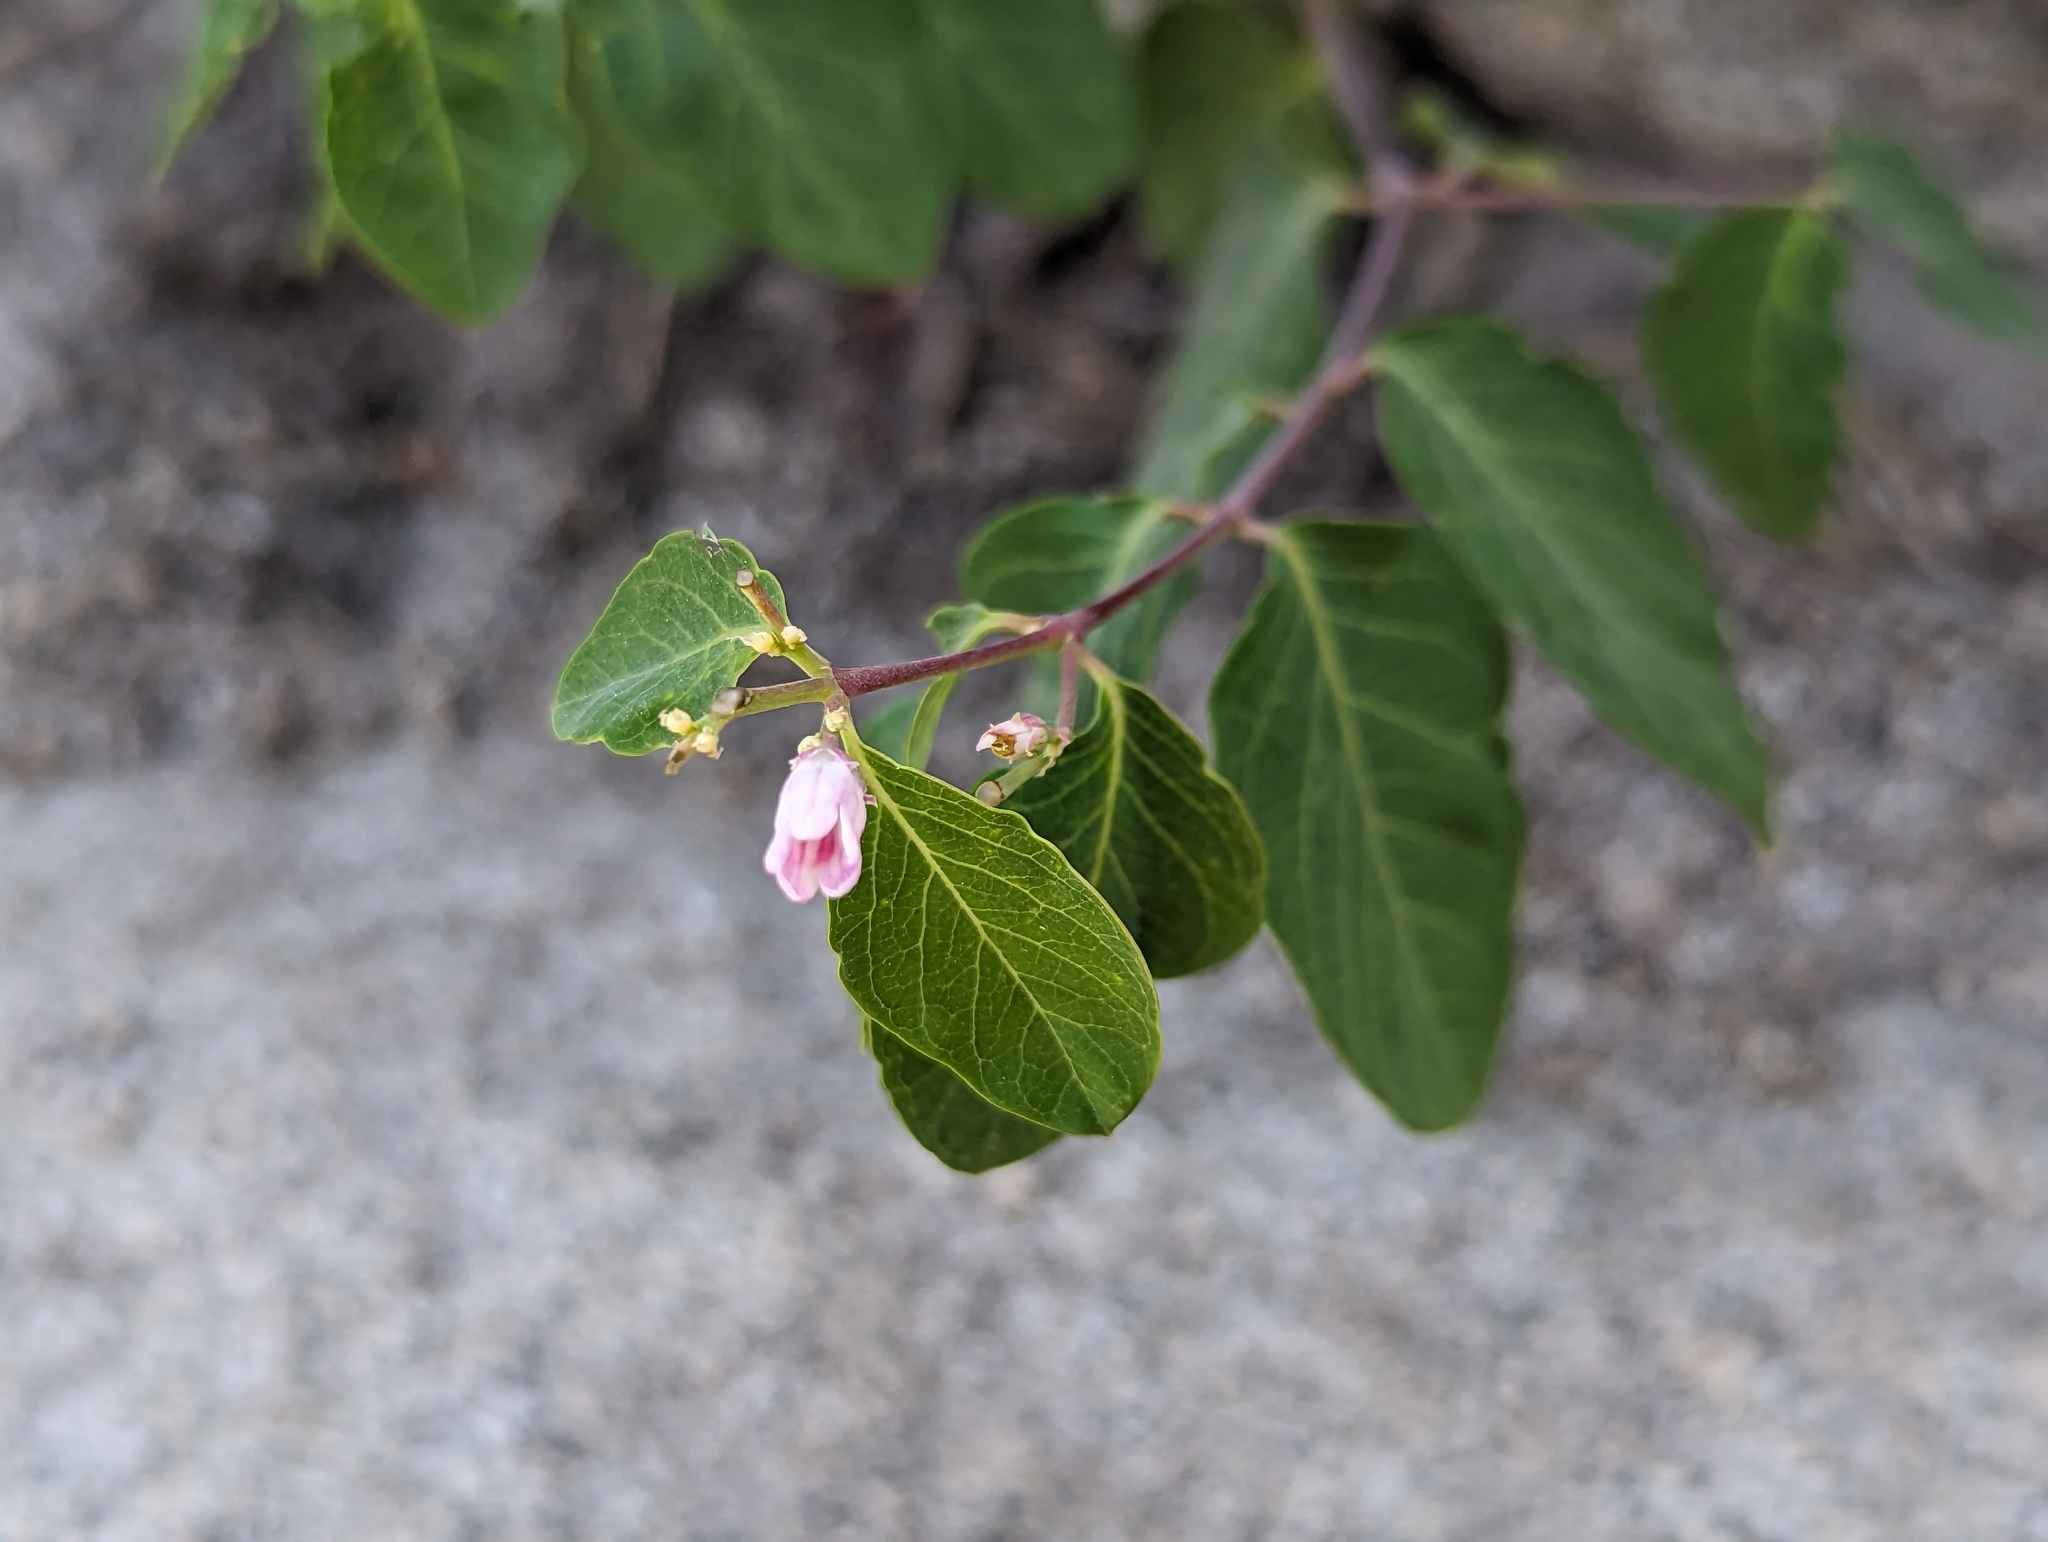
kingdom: Plantae
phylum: Tracheophyta
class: Magnoliopsida
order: Gentianales
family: Apocynaceae
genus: Apocynum
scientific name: Apocynum androsaemifolium
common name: Spreading dogbane
